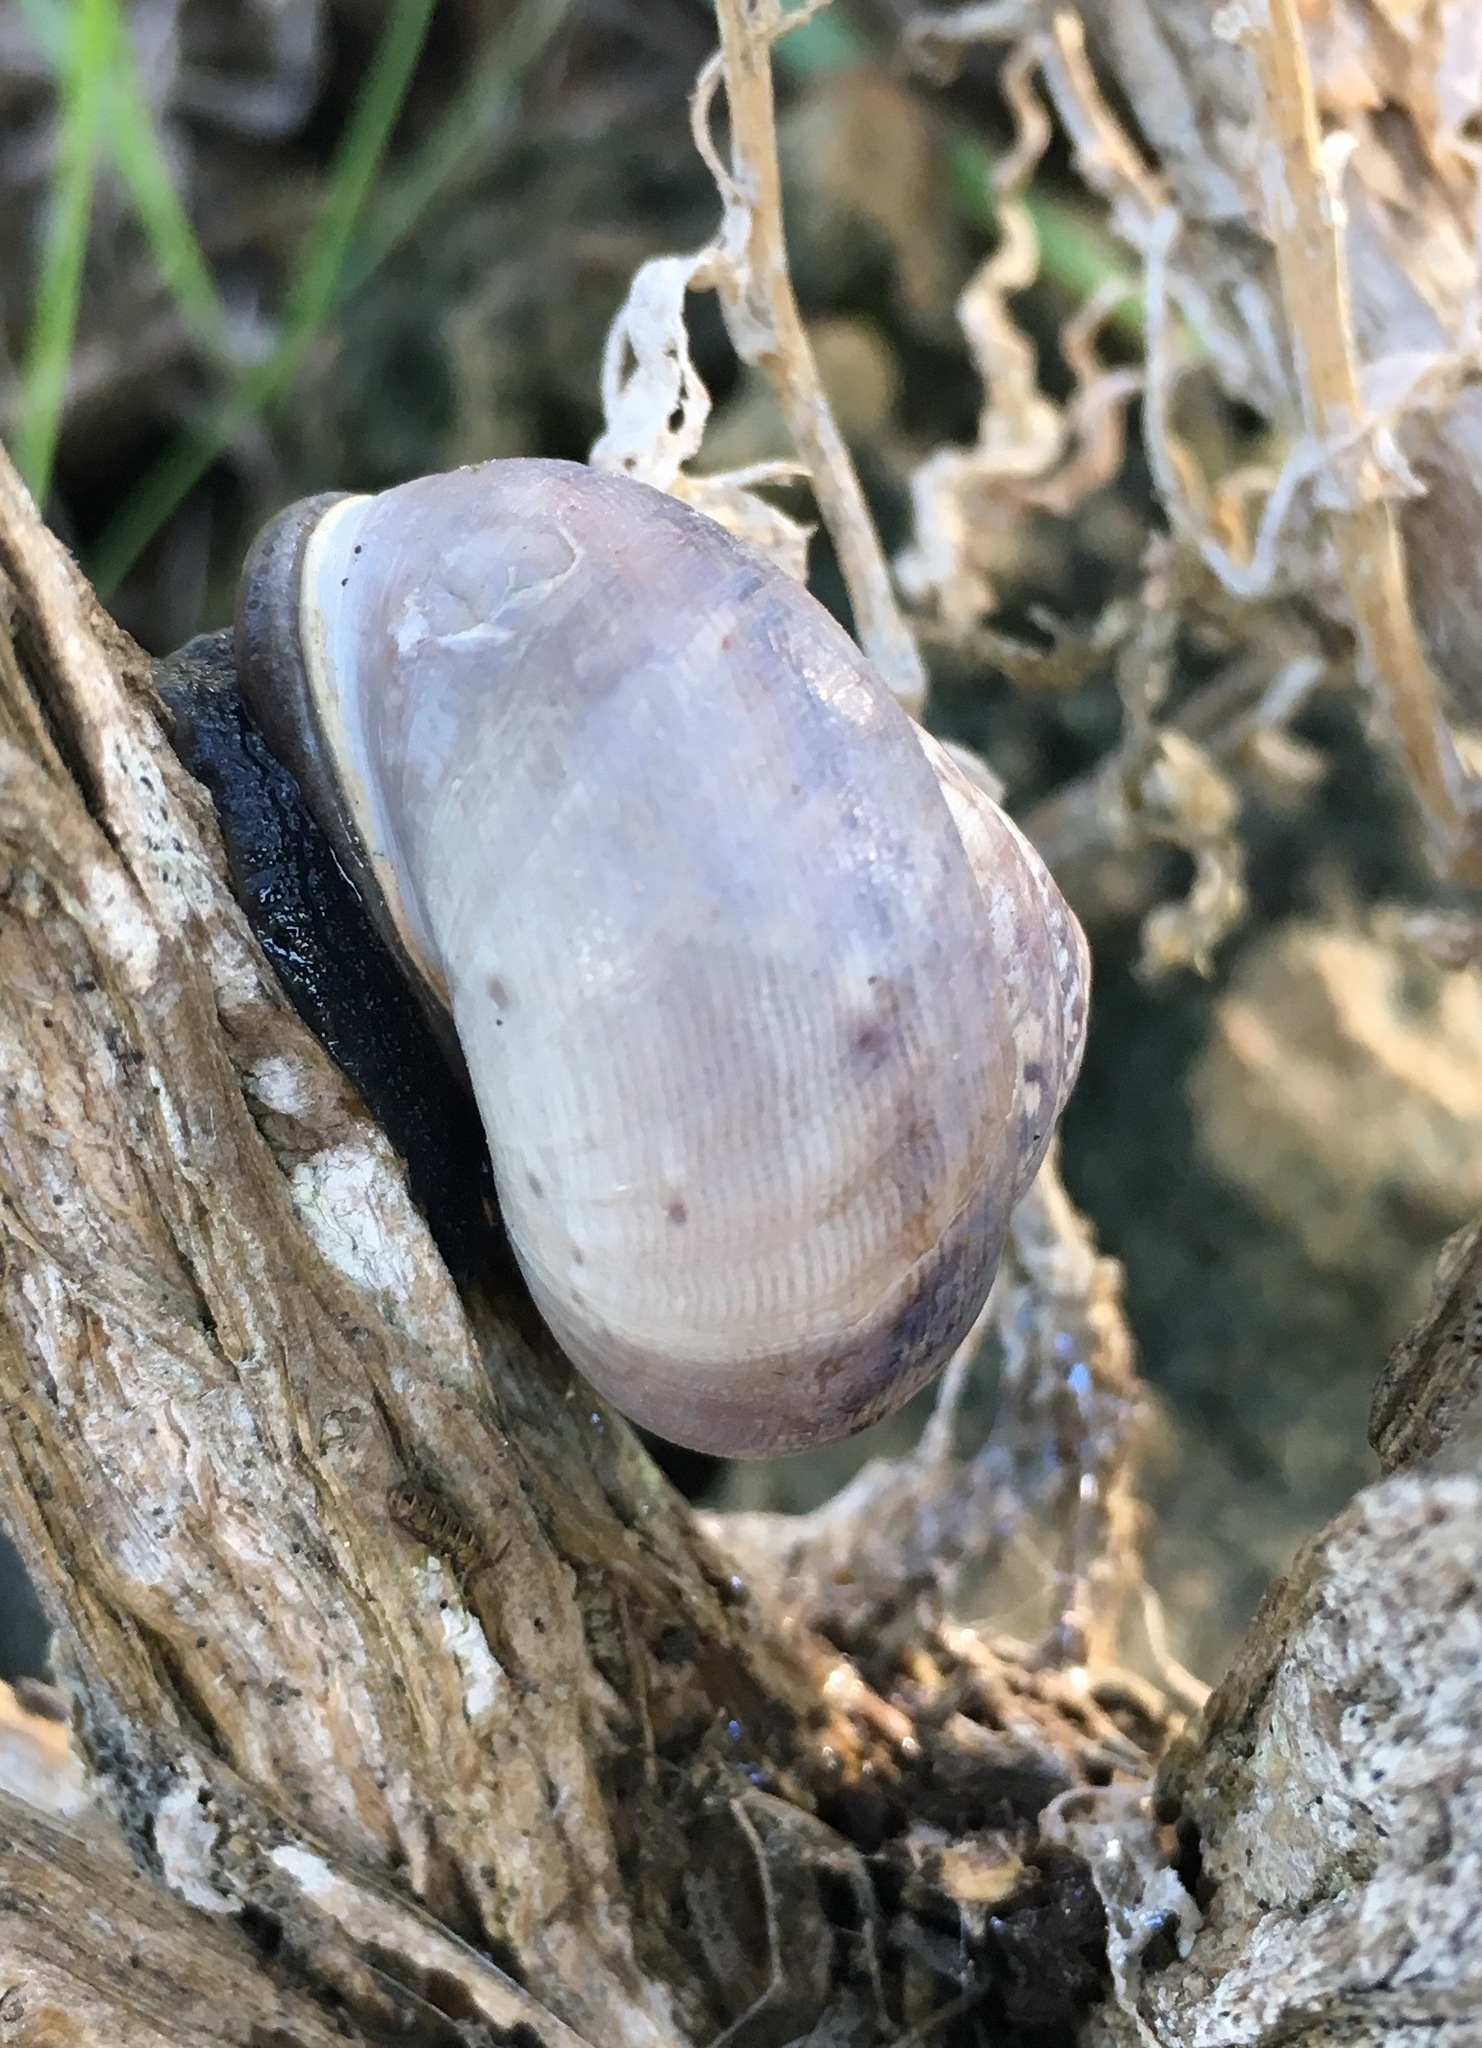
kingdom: Animalia
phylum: Mollusca
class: Gastropoda
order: Stylommatophora
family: Xanthonychidae
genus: Xerarionta
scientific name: Xerarionta tryoni
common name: Bicolor cactus snail
